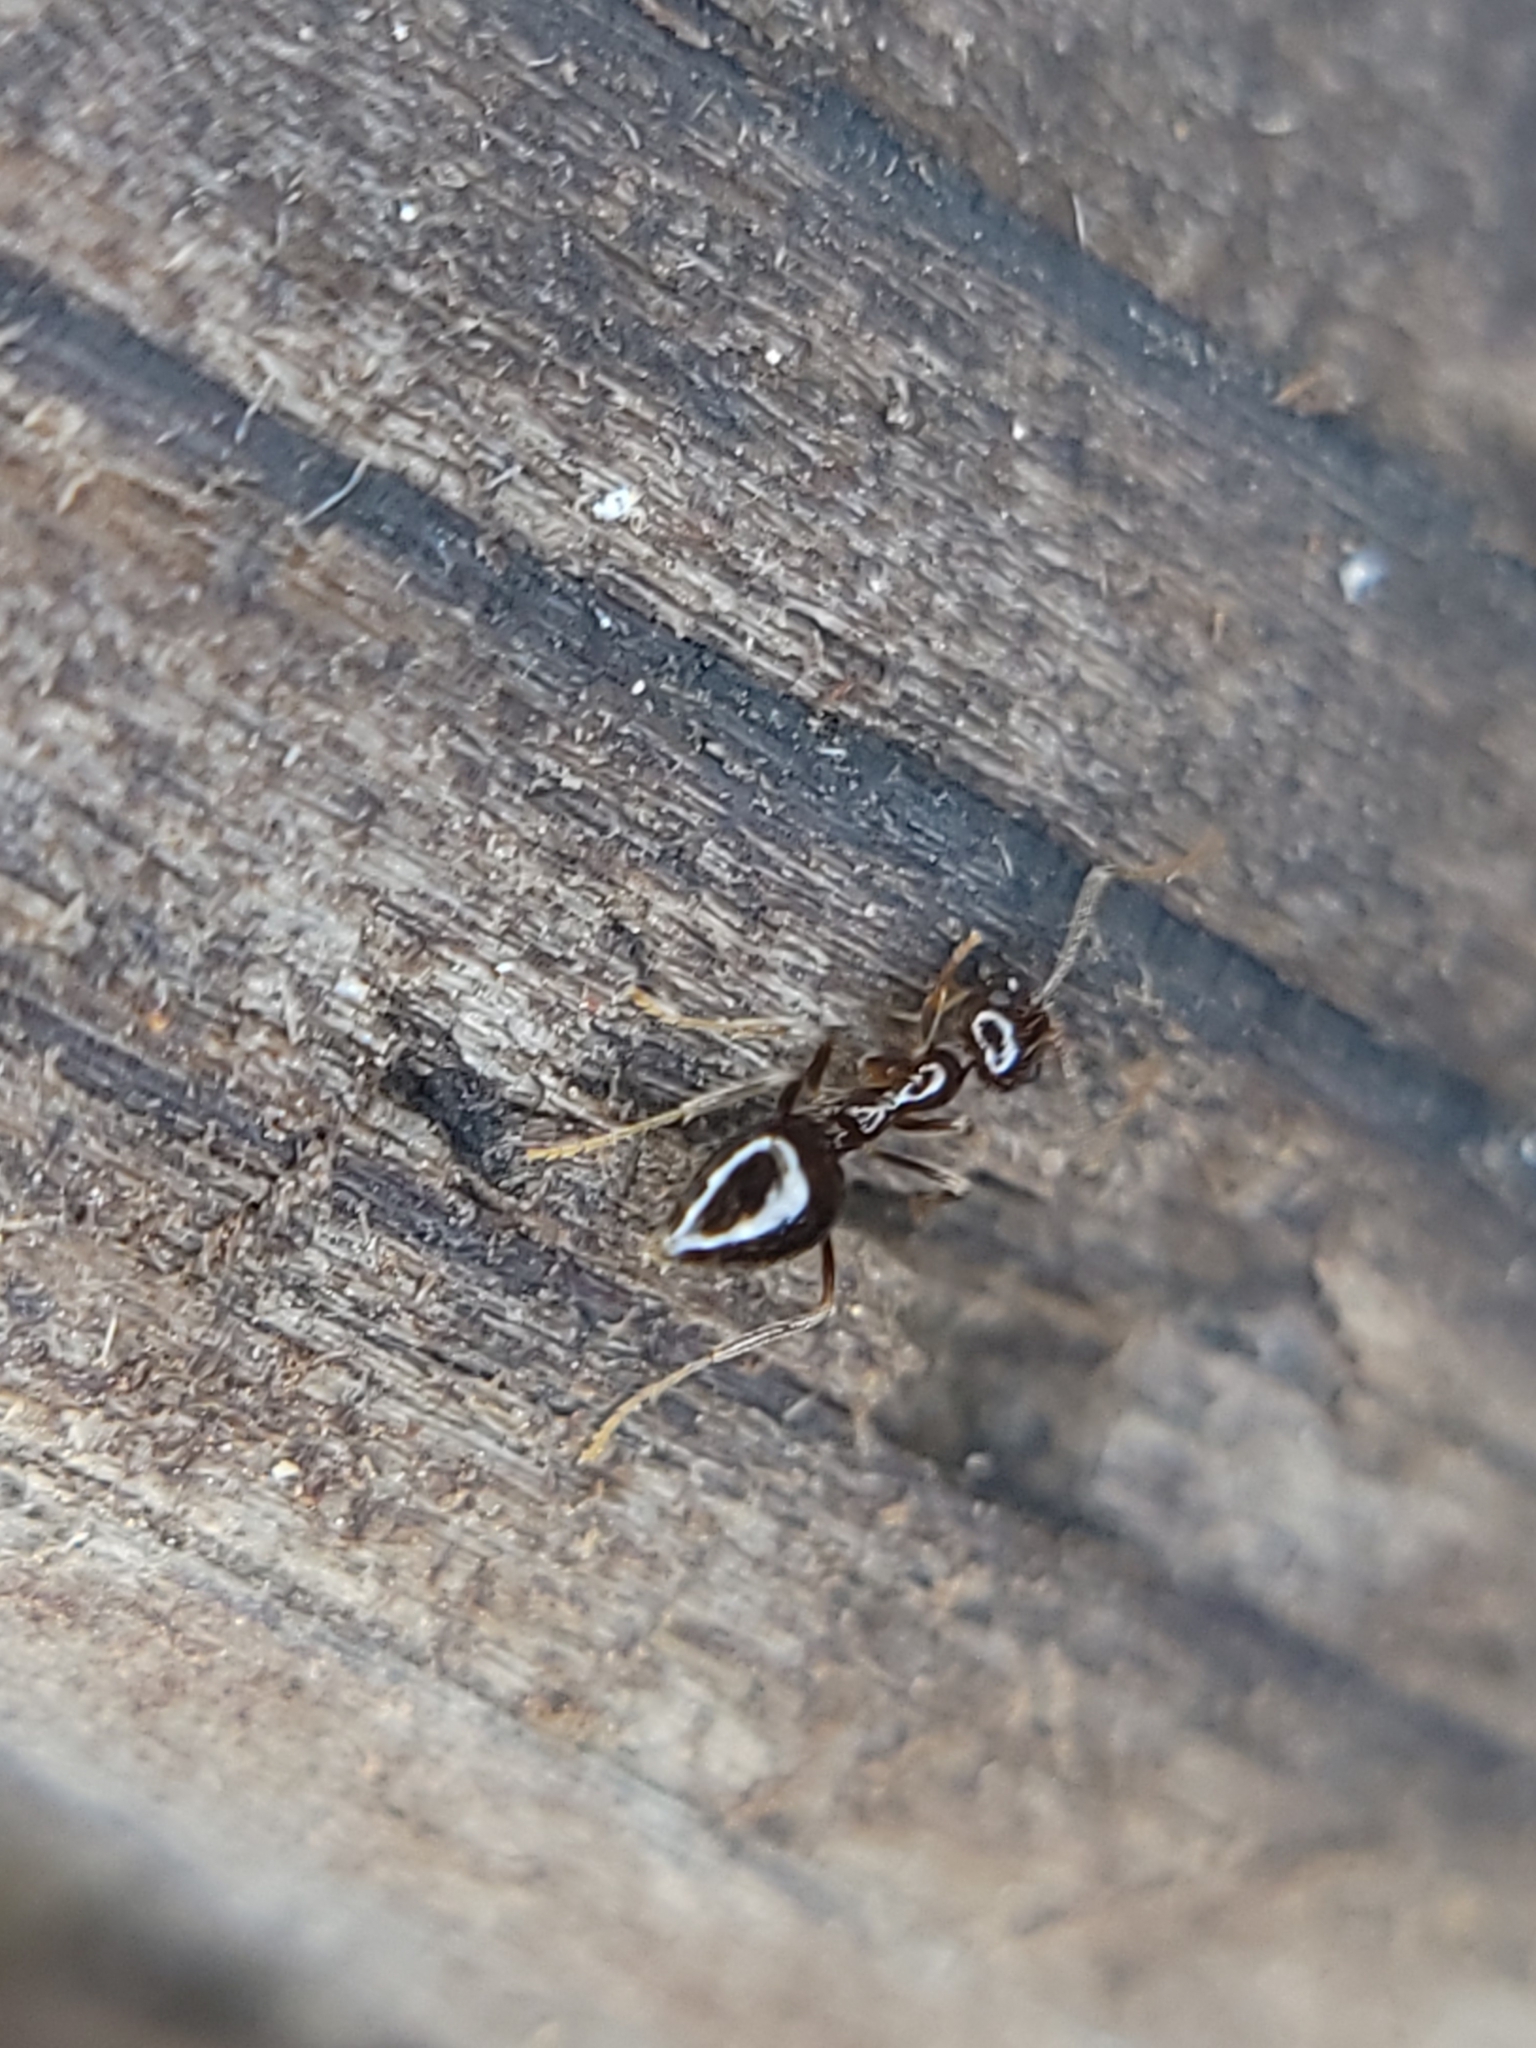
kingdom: Animalia
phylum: Arthropoda
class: Insecta
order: Hymenoptera
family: Formicidae
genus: Prenolepis
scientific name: Prenolepis imparis
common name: Small honey ant
